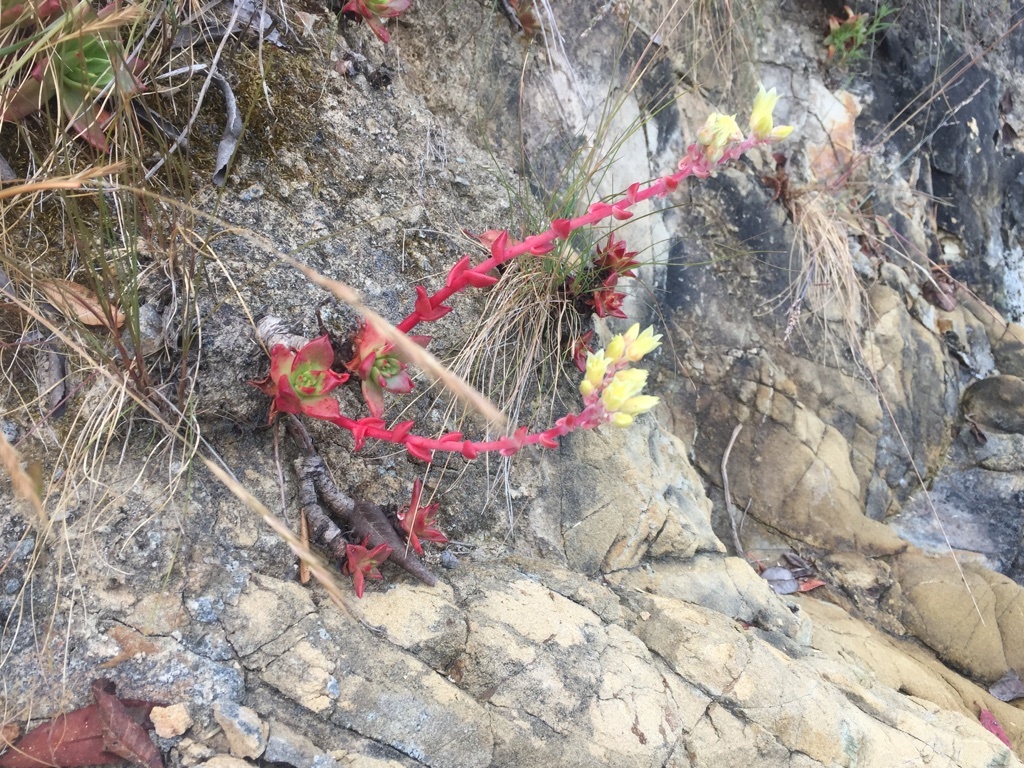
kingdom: Plantae
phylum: Tracheophyta
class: Magnoliopsida
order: Saxifragales
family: Crassulaceae
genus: Dudleya
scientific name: Dudleya farinosa
